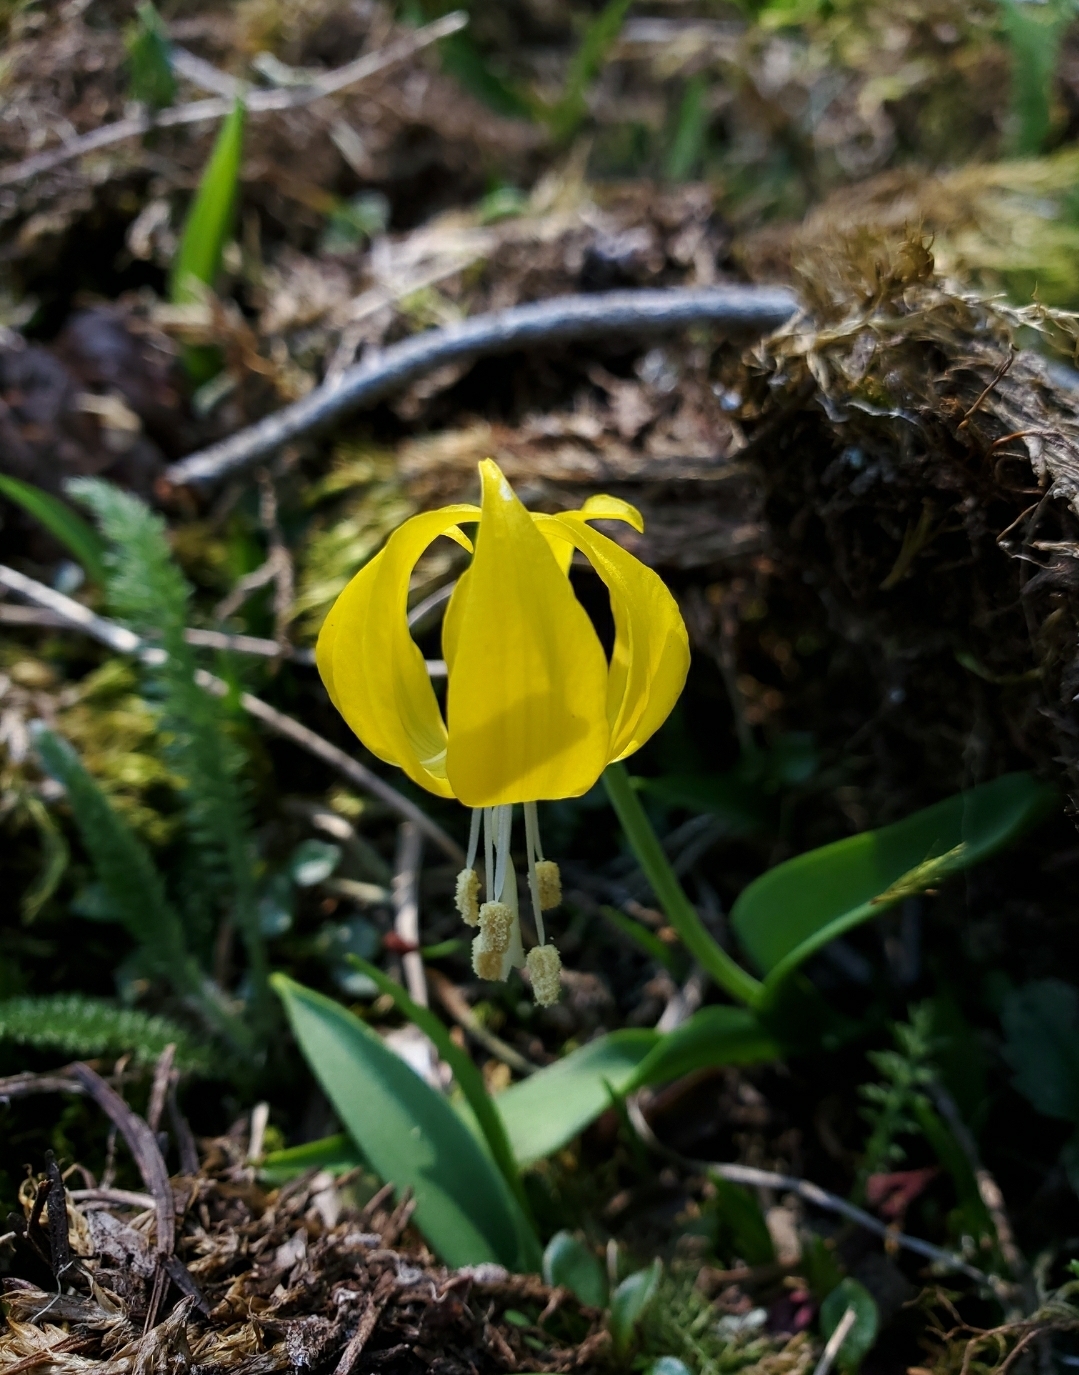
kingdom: Plantae
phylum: Tracheophyta
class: Liliopsida
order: Liliales
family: Liliaceae
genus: Erythronium
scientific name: Erythronium grandiflorum
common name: Avalanche-lily
